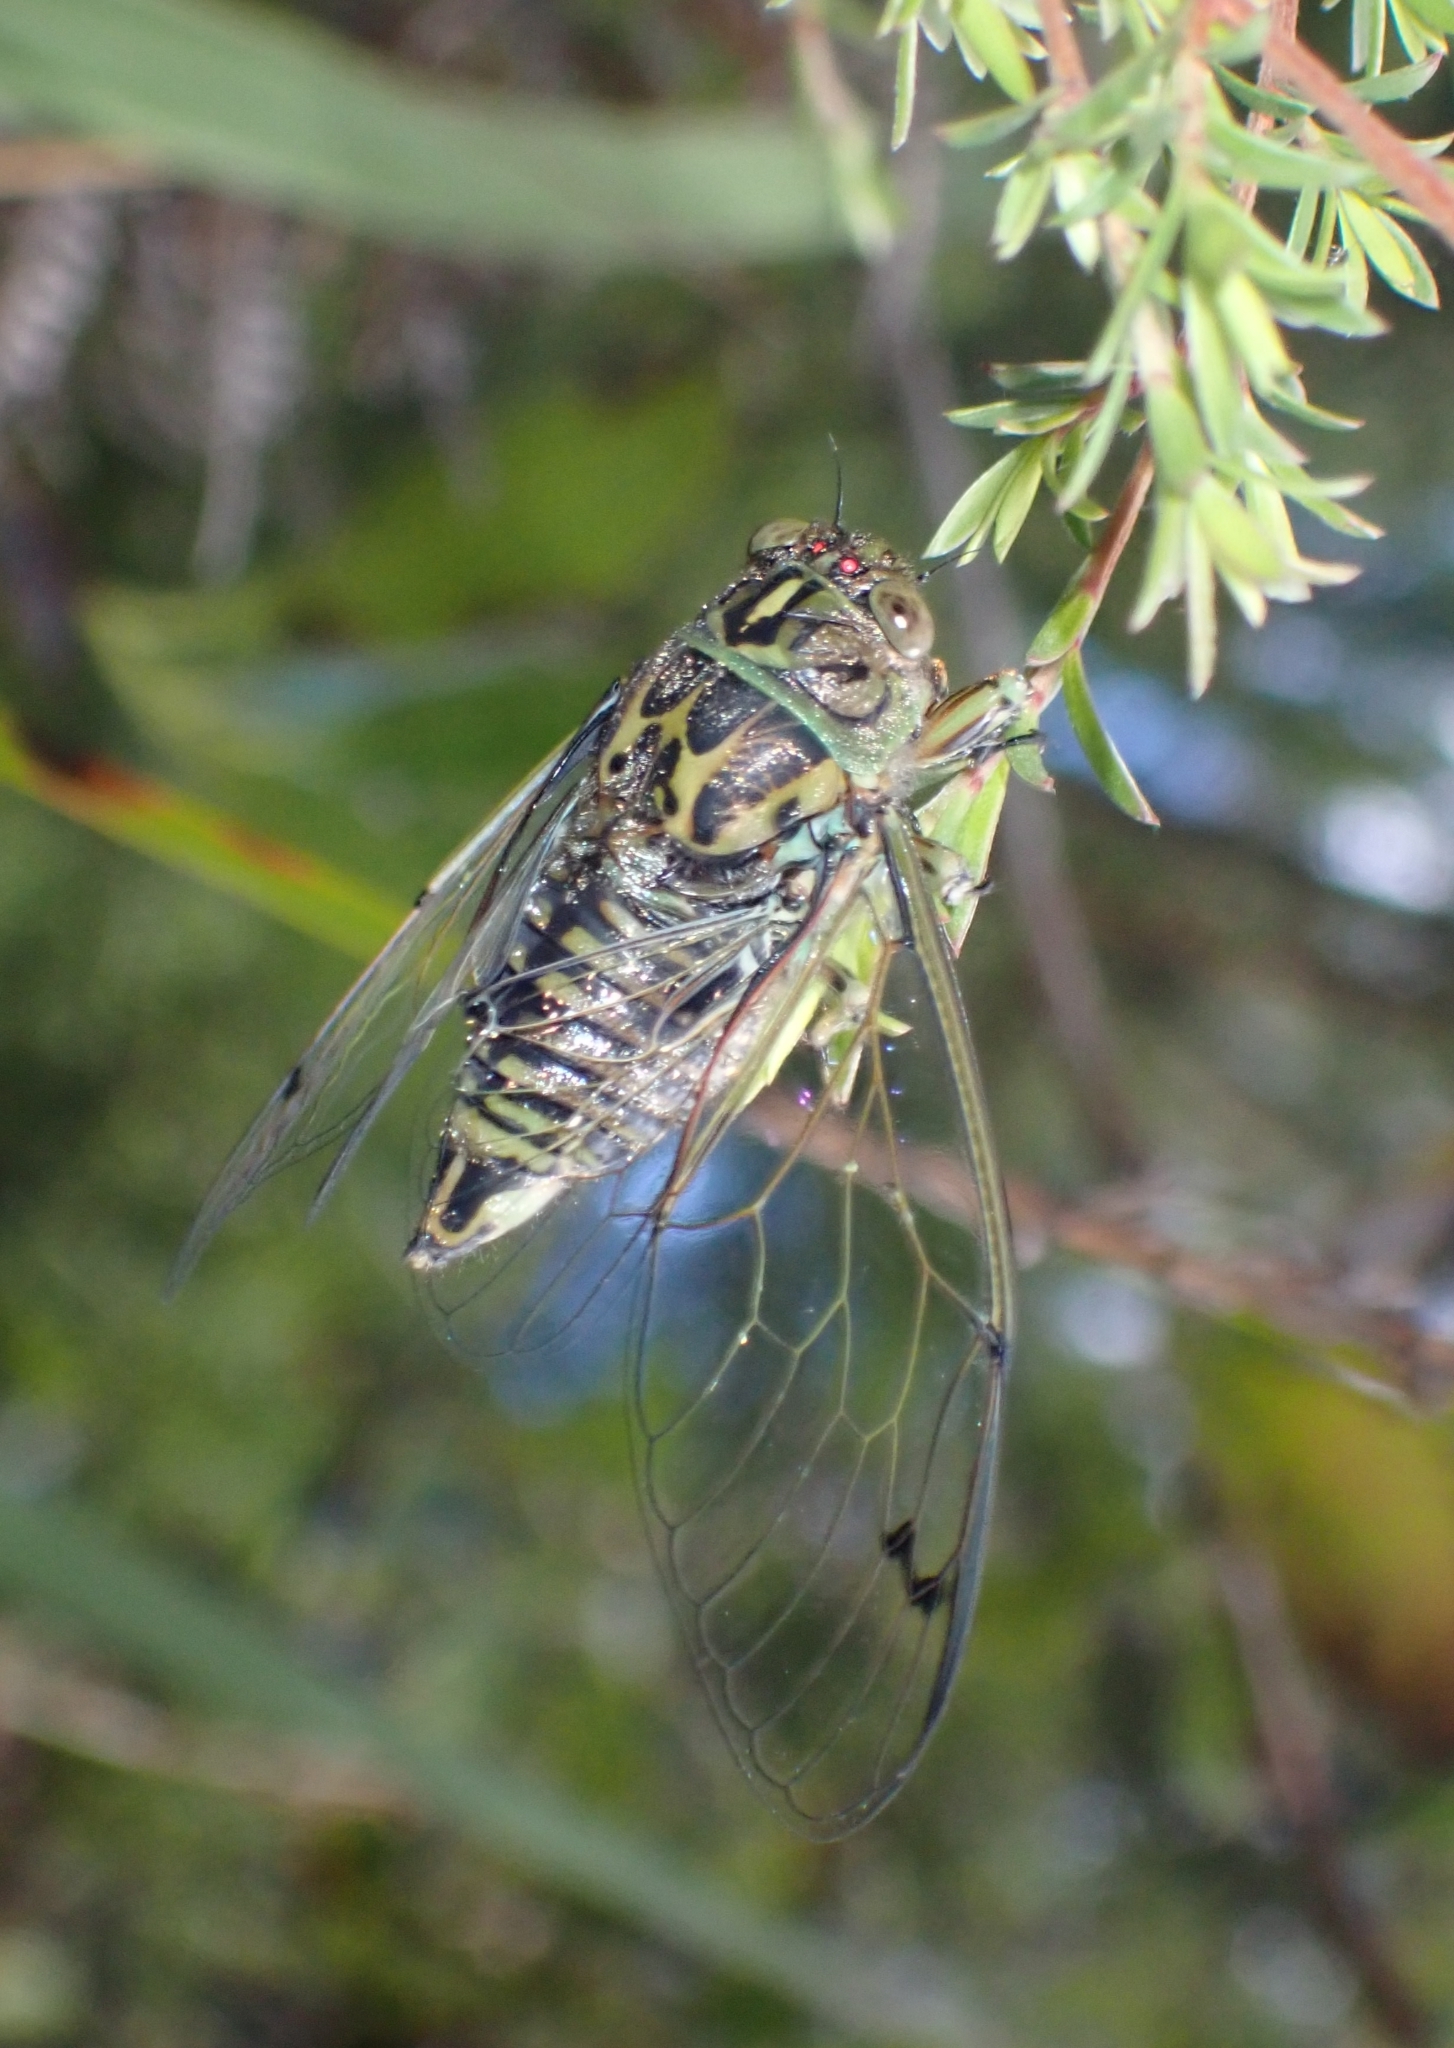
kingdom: Animalia
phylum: Arthropoda
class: Insecta
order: Hemiptera
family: Cicadidae
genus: Amphipsalta
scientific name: Amphipsalta zelandica
